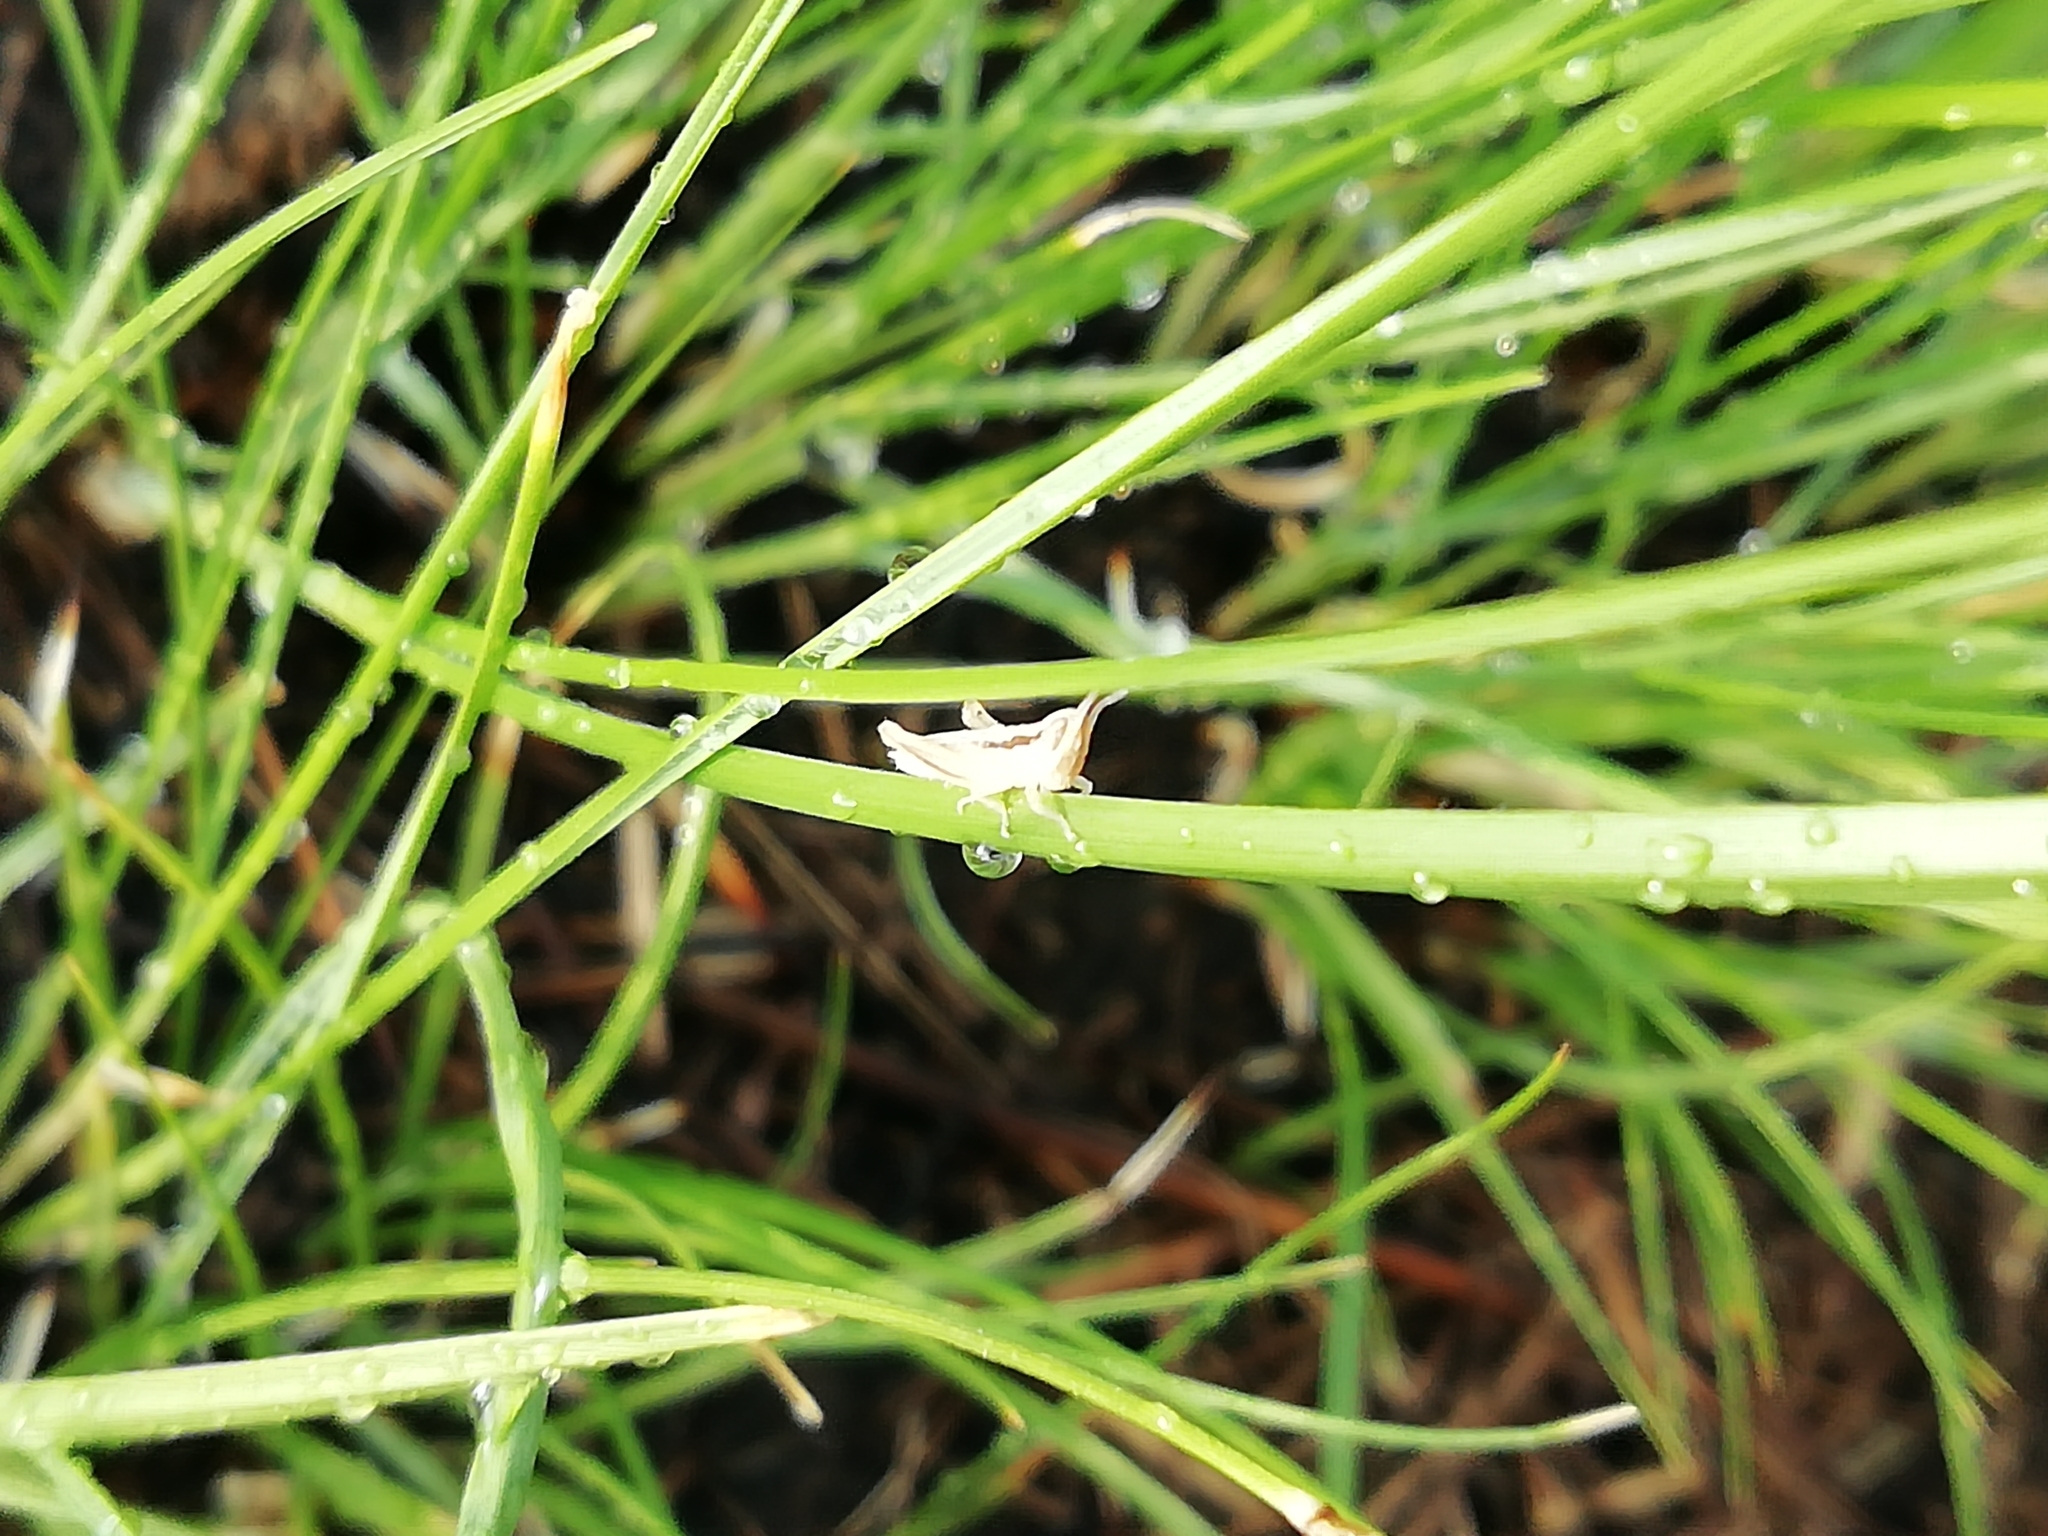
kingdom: Animalia
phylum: Arthropoda
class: Insecta
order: Orthoptera
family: Acrididae
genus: Euchorthippus
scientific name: Euchorthippus pulvinatus
